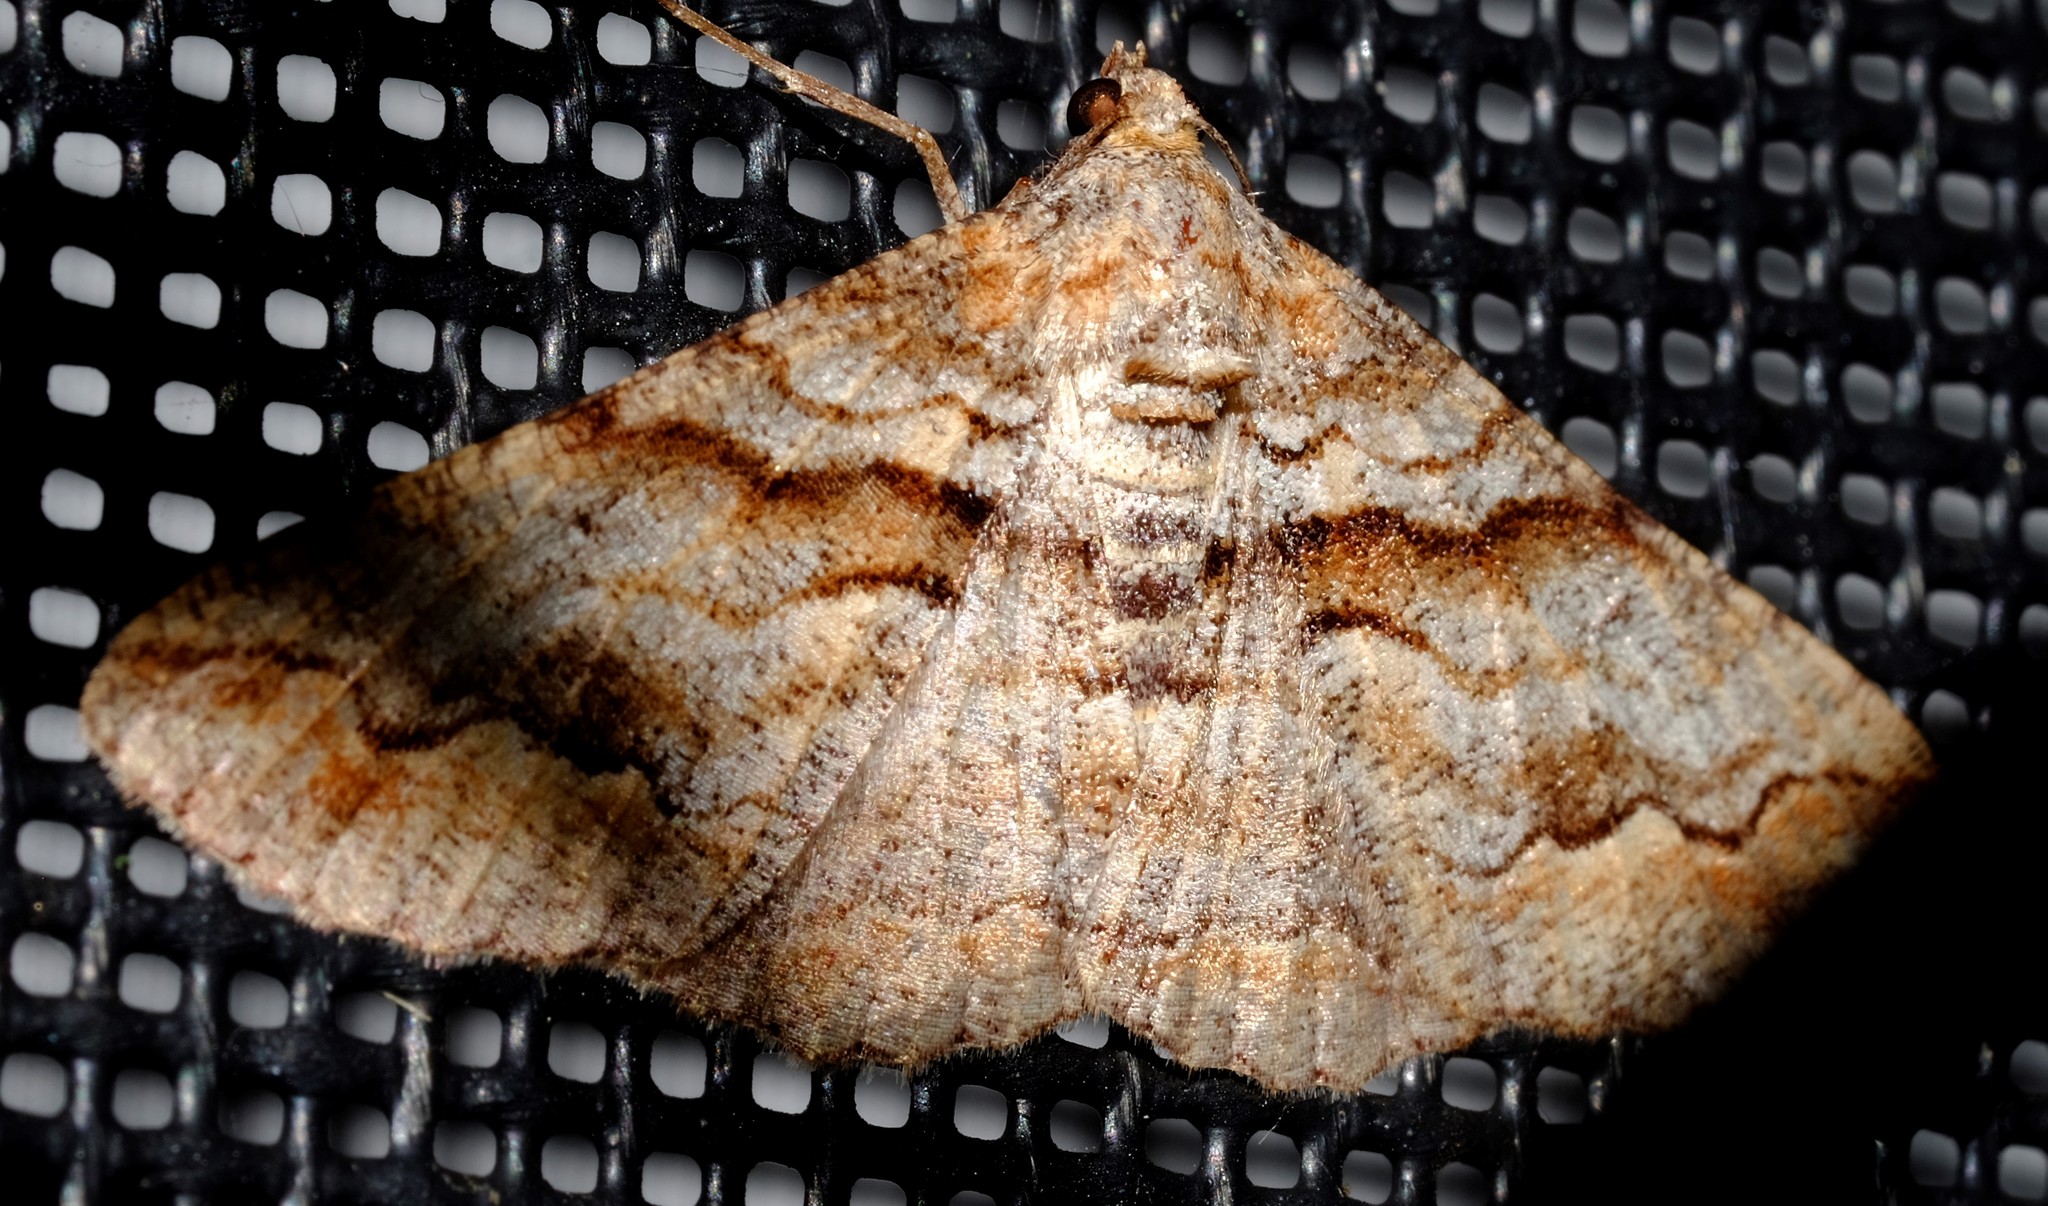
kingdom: Animalia
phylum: Arthropoda
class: Insecta
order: Lepidoptera
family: Geometridae
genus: Gastrinodes
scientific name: Gastrinodes bitaeniaria
